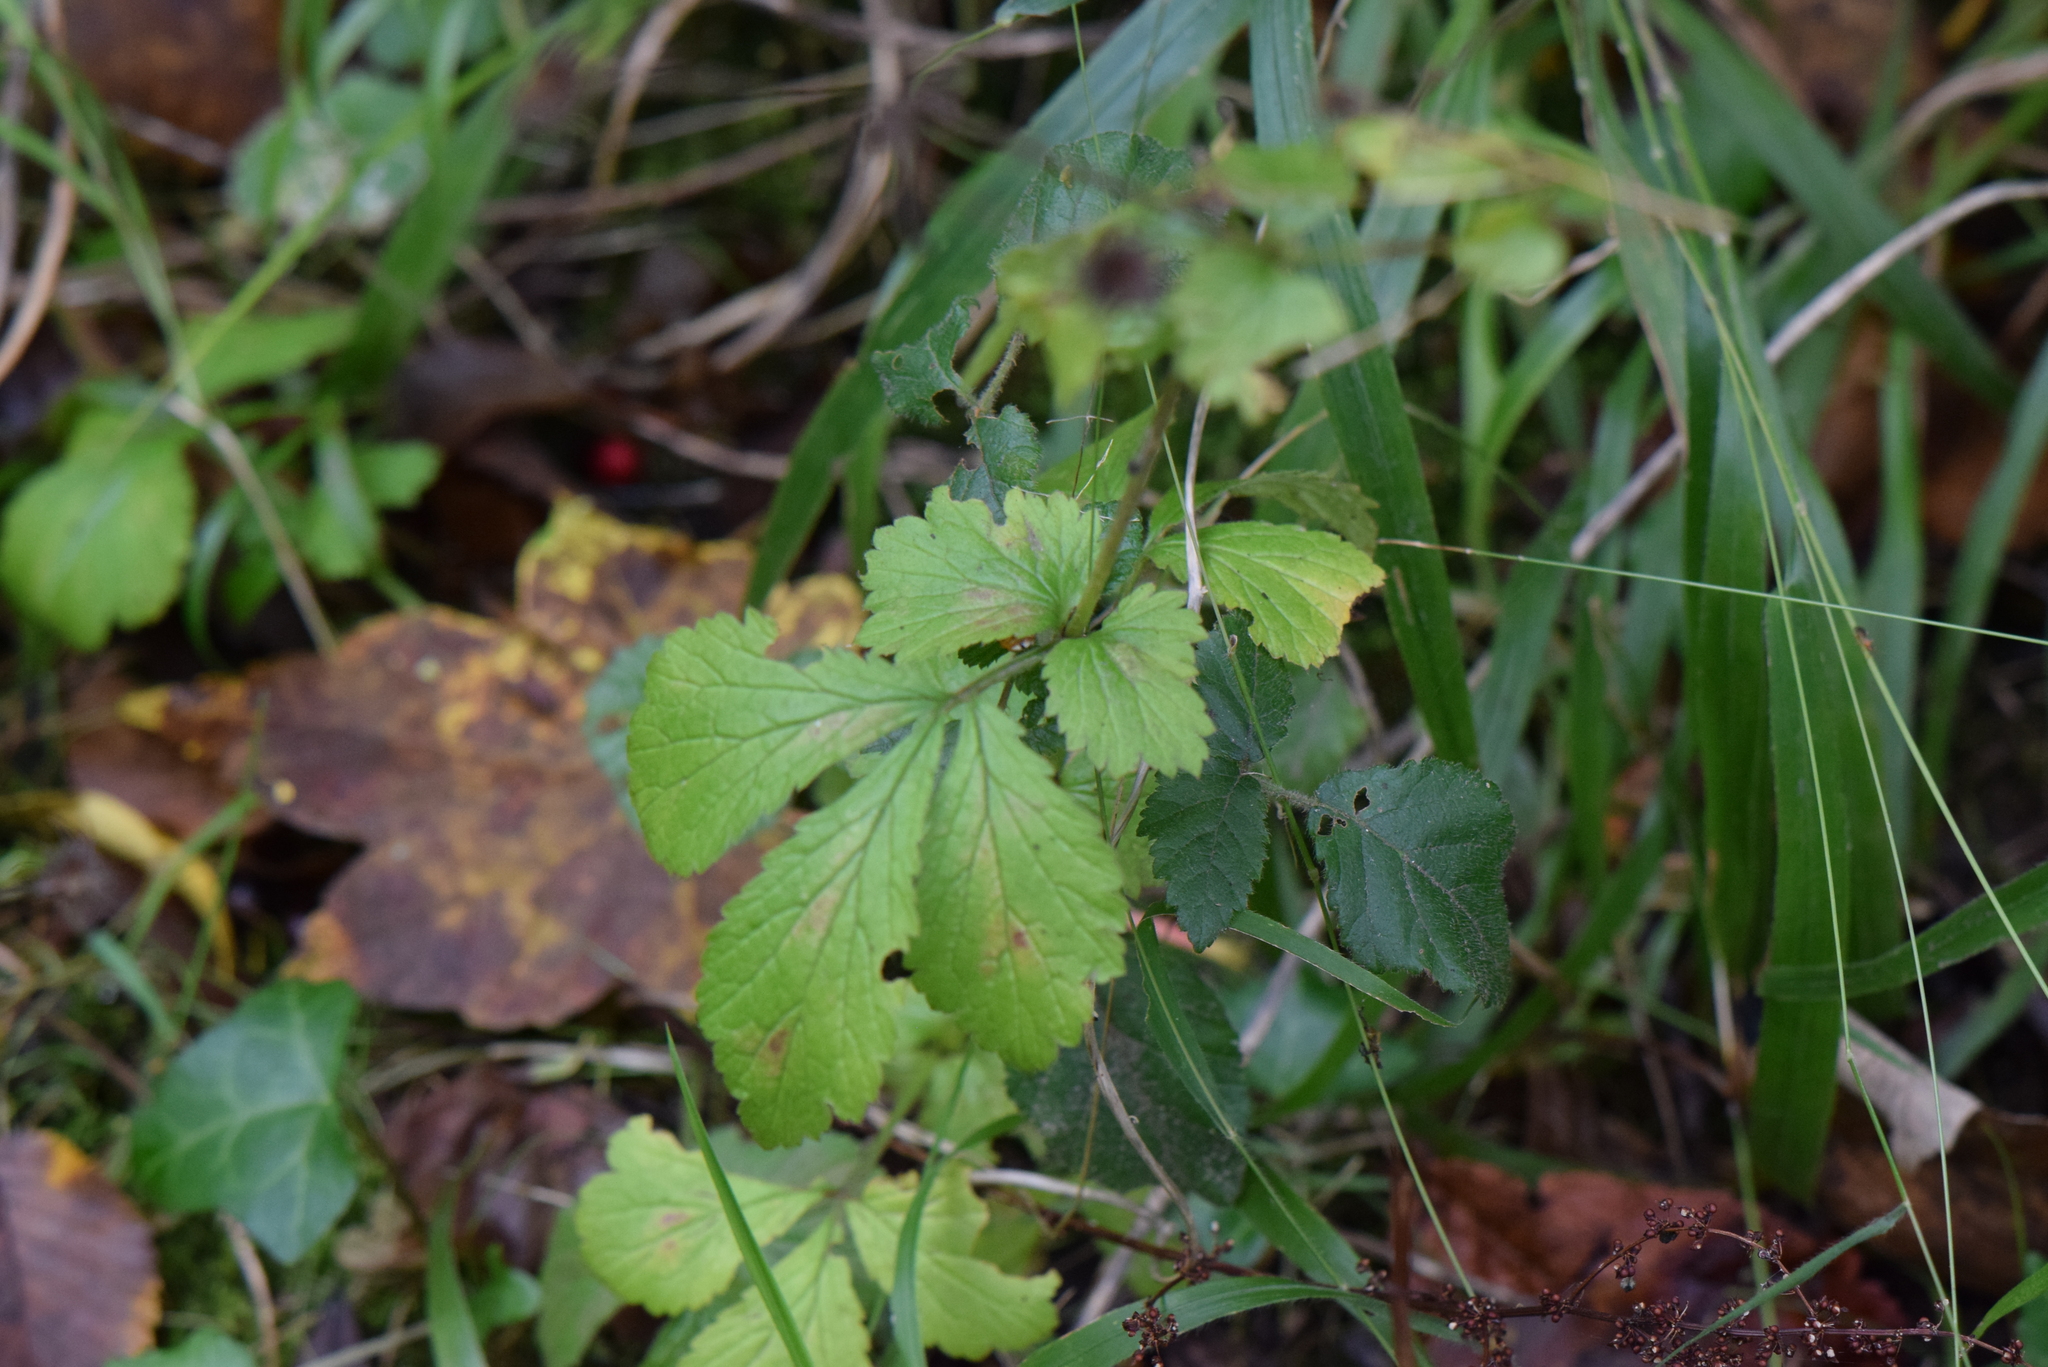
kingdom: Plantae
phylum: Tracheophyta
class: Magnoliopsida
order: Rosales
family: Rosaceae
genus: Geum
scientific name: Geum urbanum
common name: Wood avens
